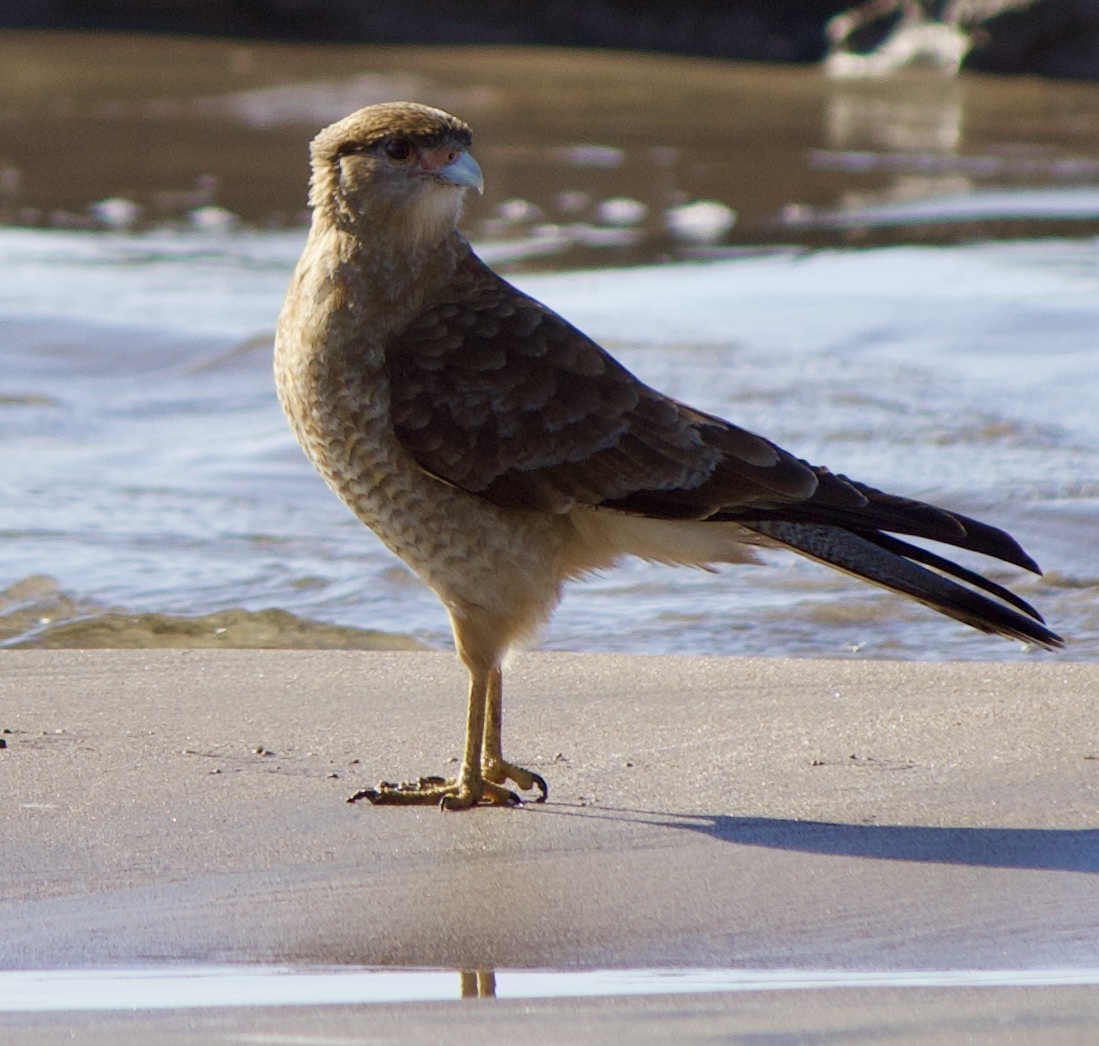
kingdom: Animalia
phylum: Chordata
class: Aves
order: Falconiformes
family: Falconidae
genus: Daptrius
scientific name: Daptrius
